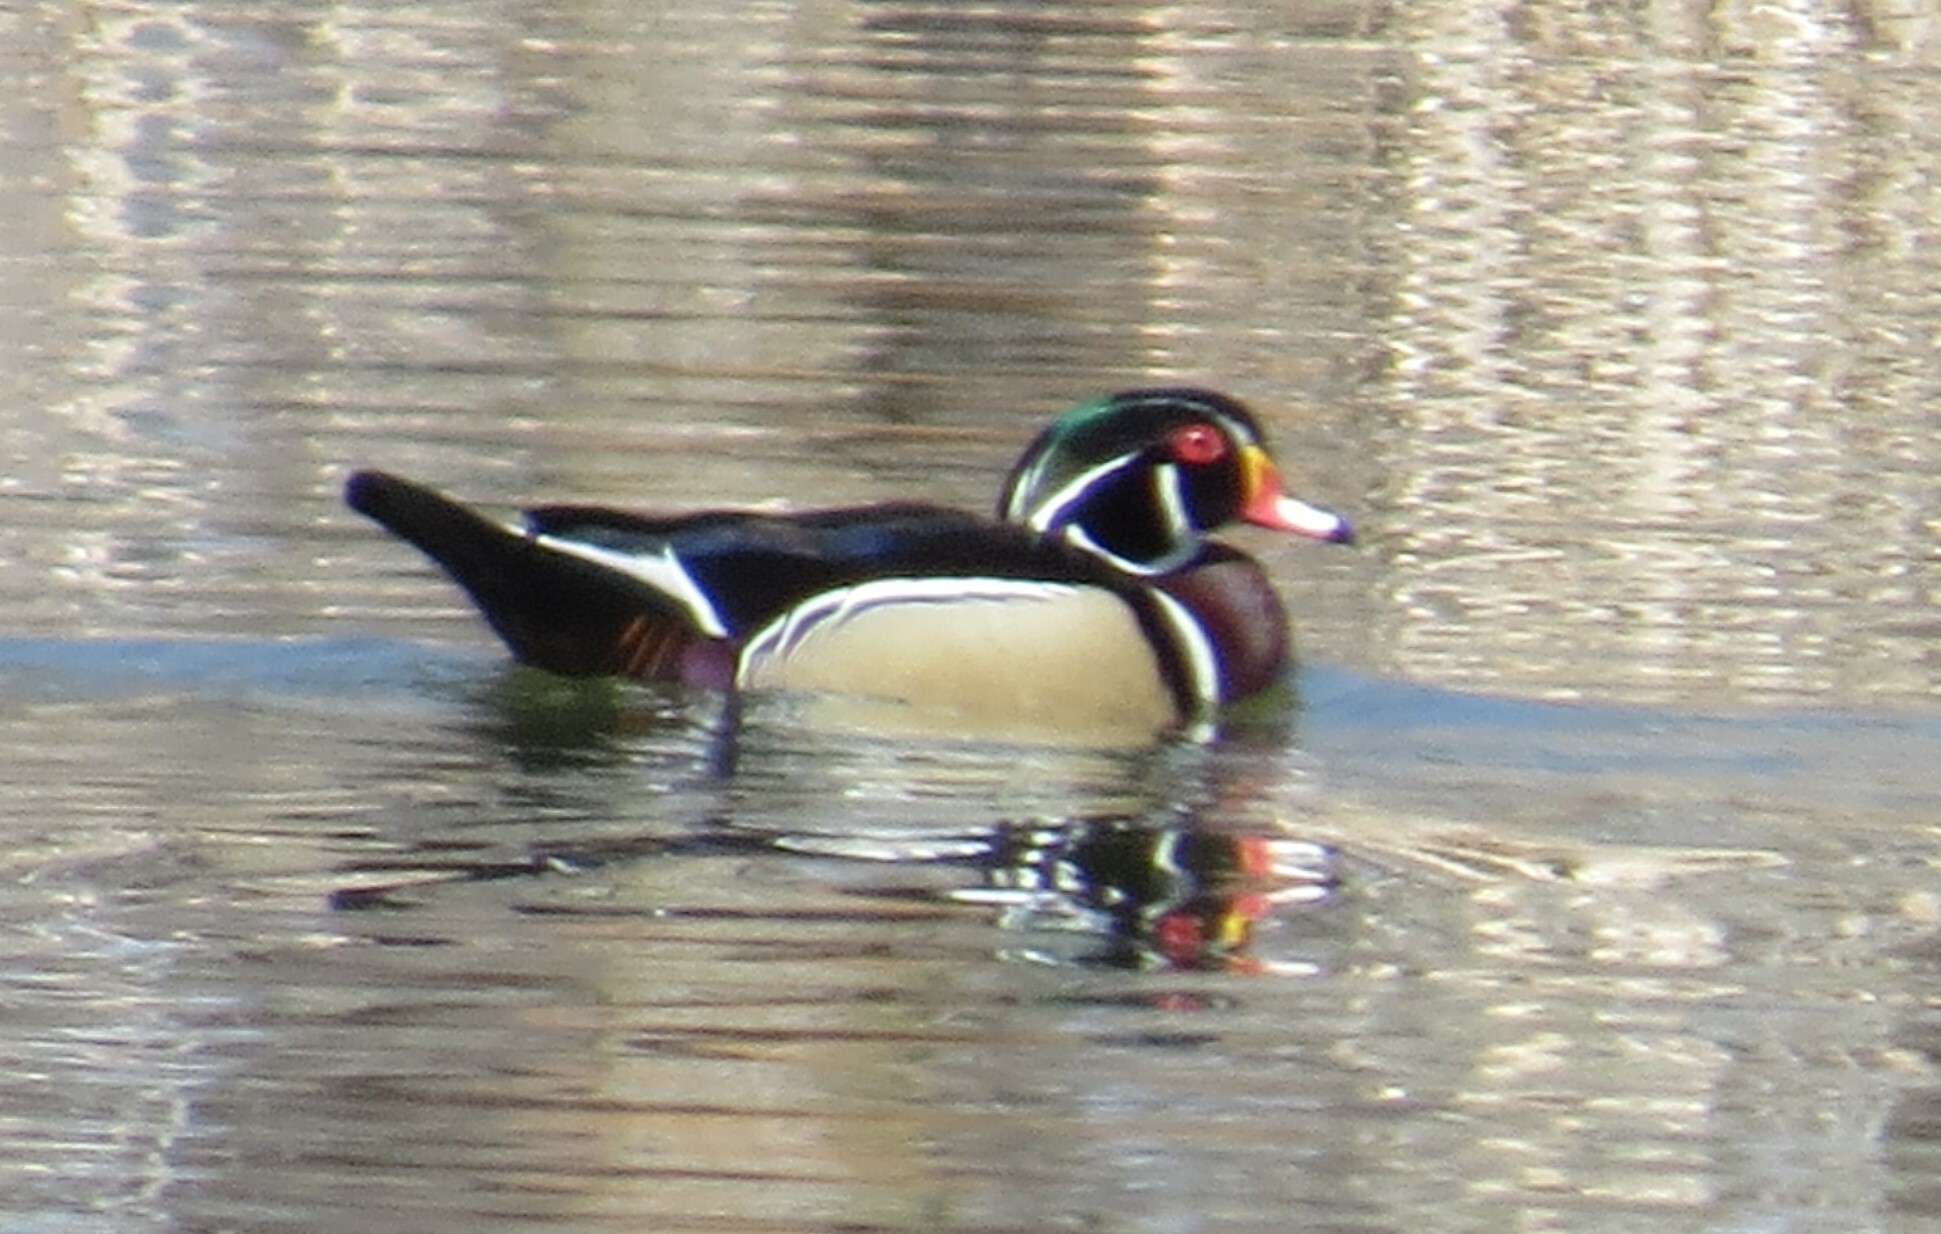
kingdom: Animalia
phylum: Chordata
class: Aves
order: Anseriformes
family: Anatidae
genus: Aix
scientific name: Aix sponsa
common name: Wood duck
